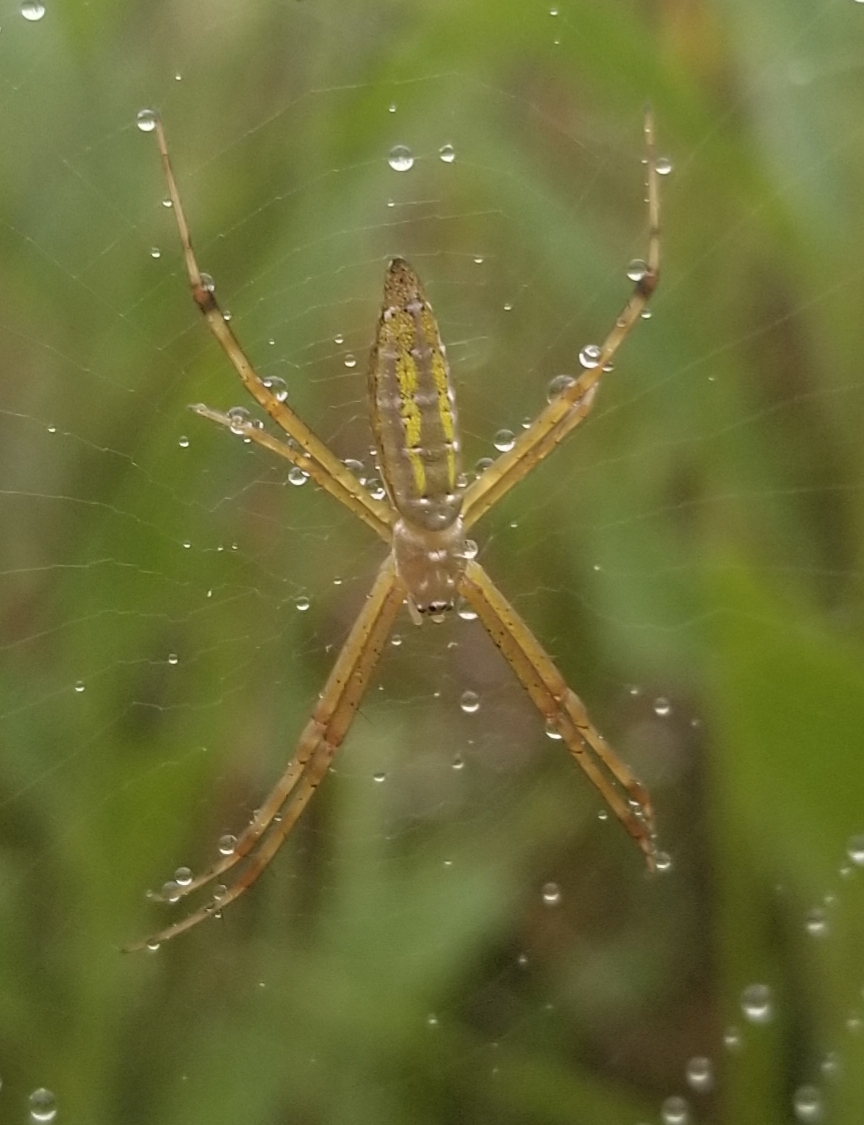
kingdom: Animalia
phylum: Arthropoda
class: Arachnida
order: Araneae
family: Araneidae
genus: Argiope
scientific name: Argiope trifasciata
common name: Banded garden spider
